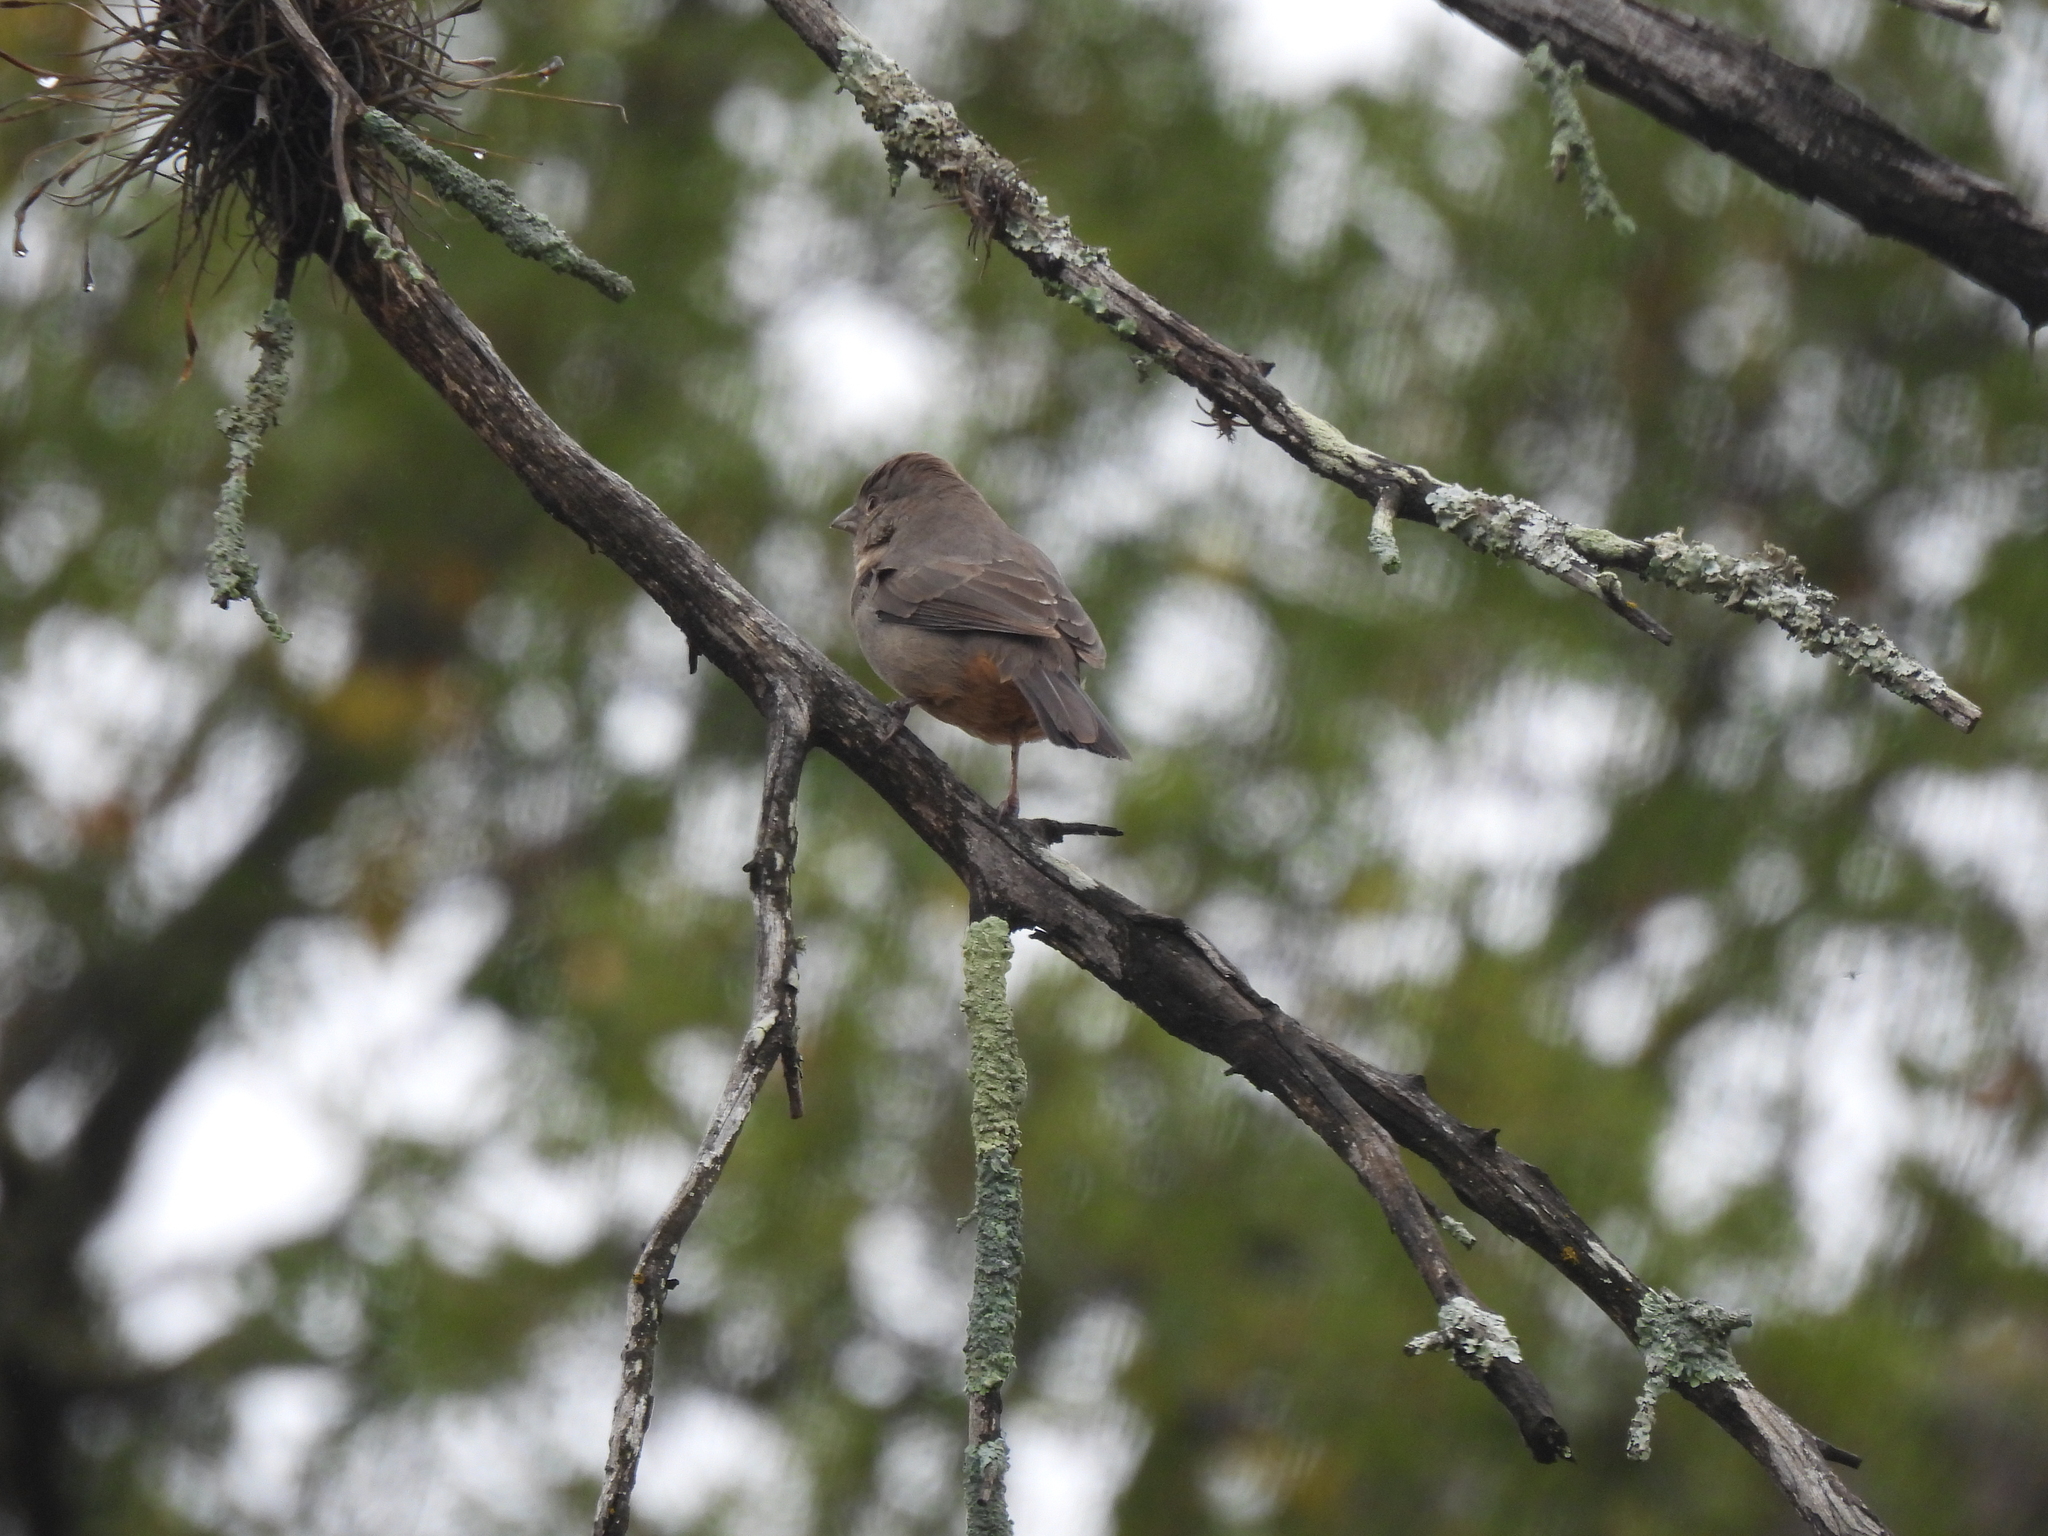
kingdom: Animalia
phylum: Chordata
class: Aves
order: Passeriformes
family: Passerellidae
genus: Melozone
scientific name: Melozone fusca
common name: Canyon towhee
